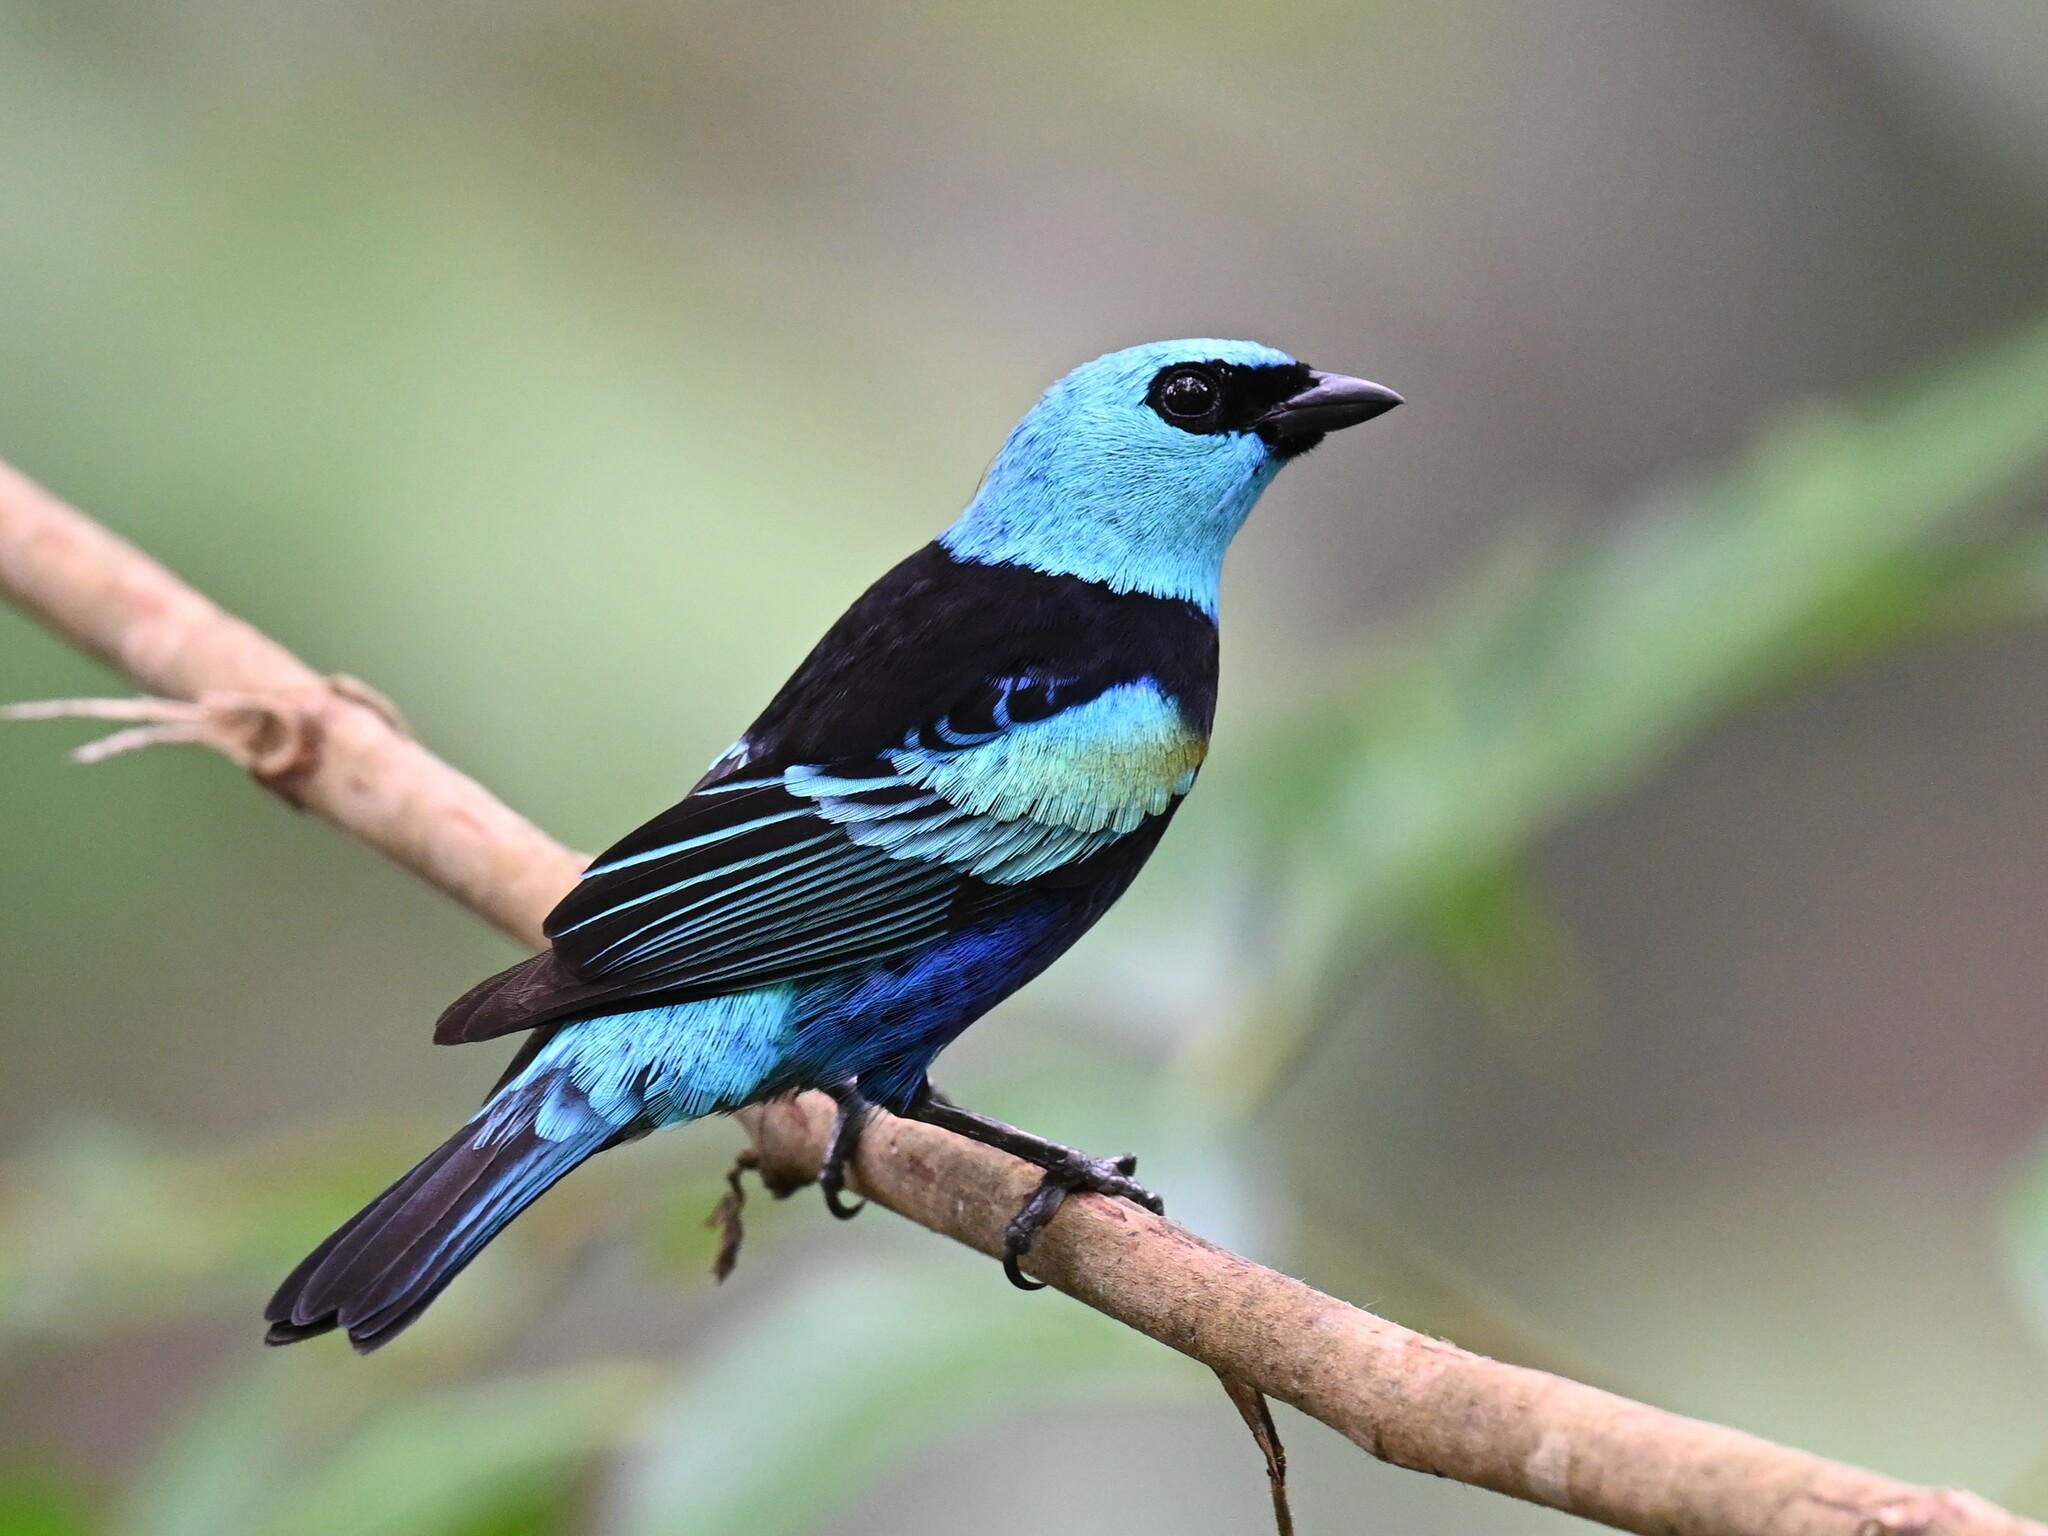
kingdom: Animalia
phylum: Chordata
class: Aves
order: Passeriformes
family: Thraupidae
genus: Stilpnia
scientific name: Stilpnia cyanicollis
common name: Blue-necked tanager
